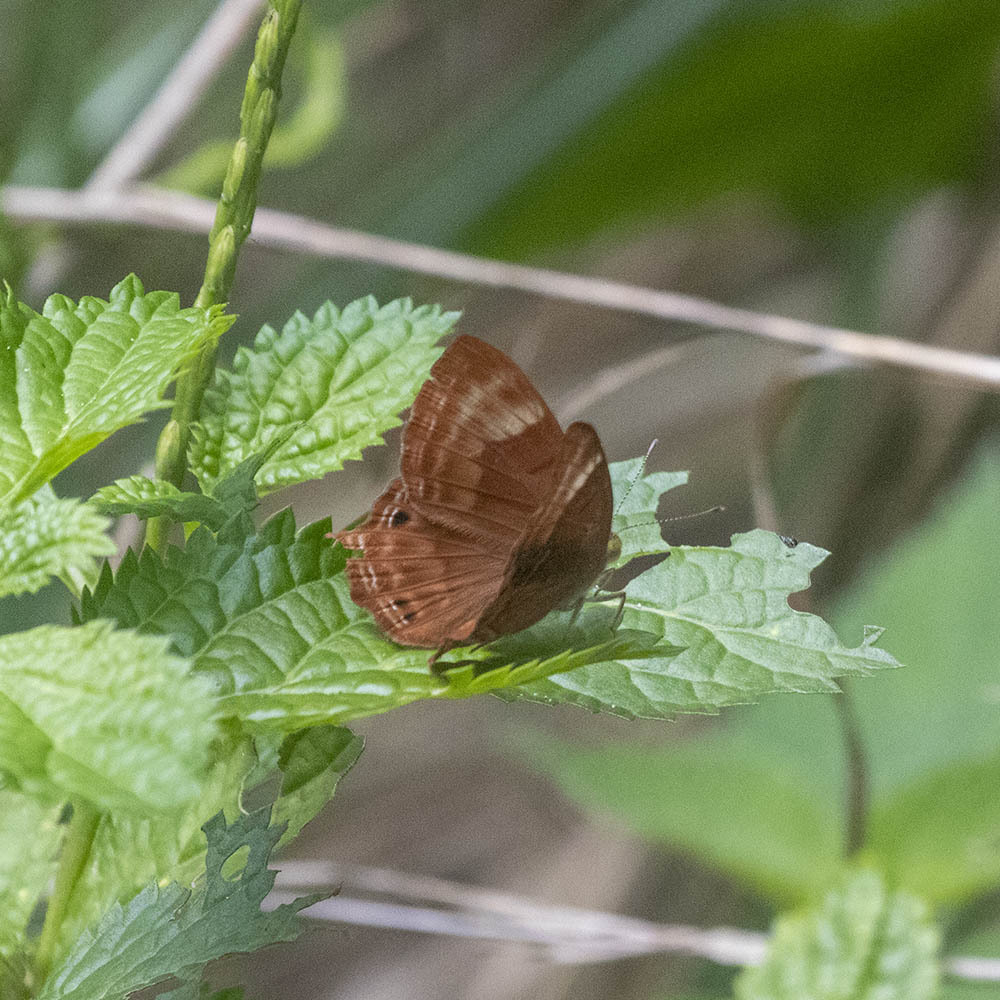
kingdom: Animalia
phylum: Arthropoda
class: Insecta
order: Lepidoptera
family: Lycaenidae
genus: Abisara
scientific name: Abisara bifasciata
